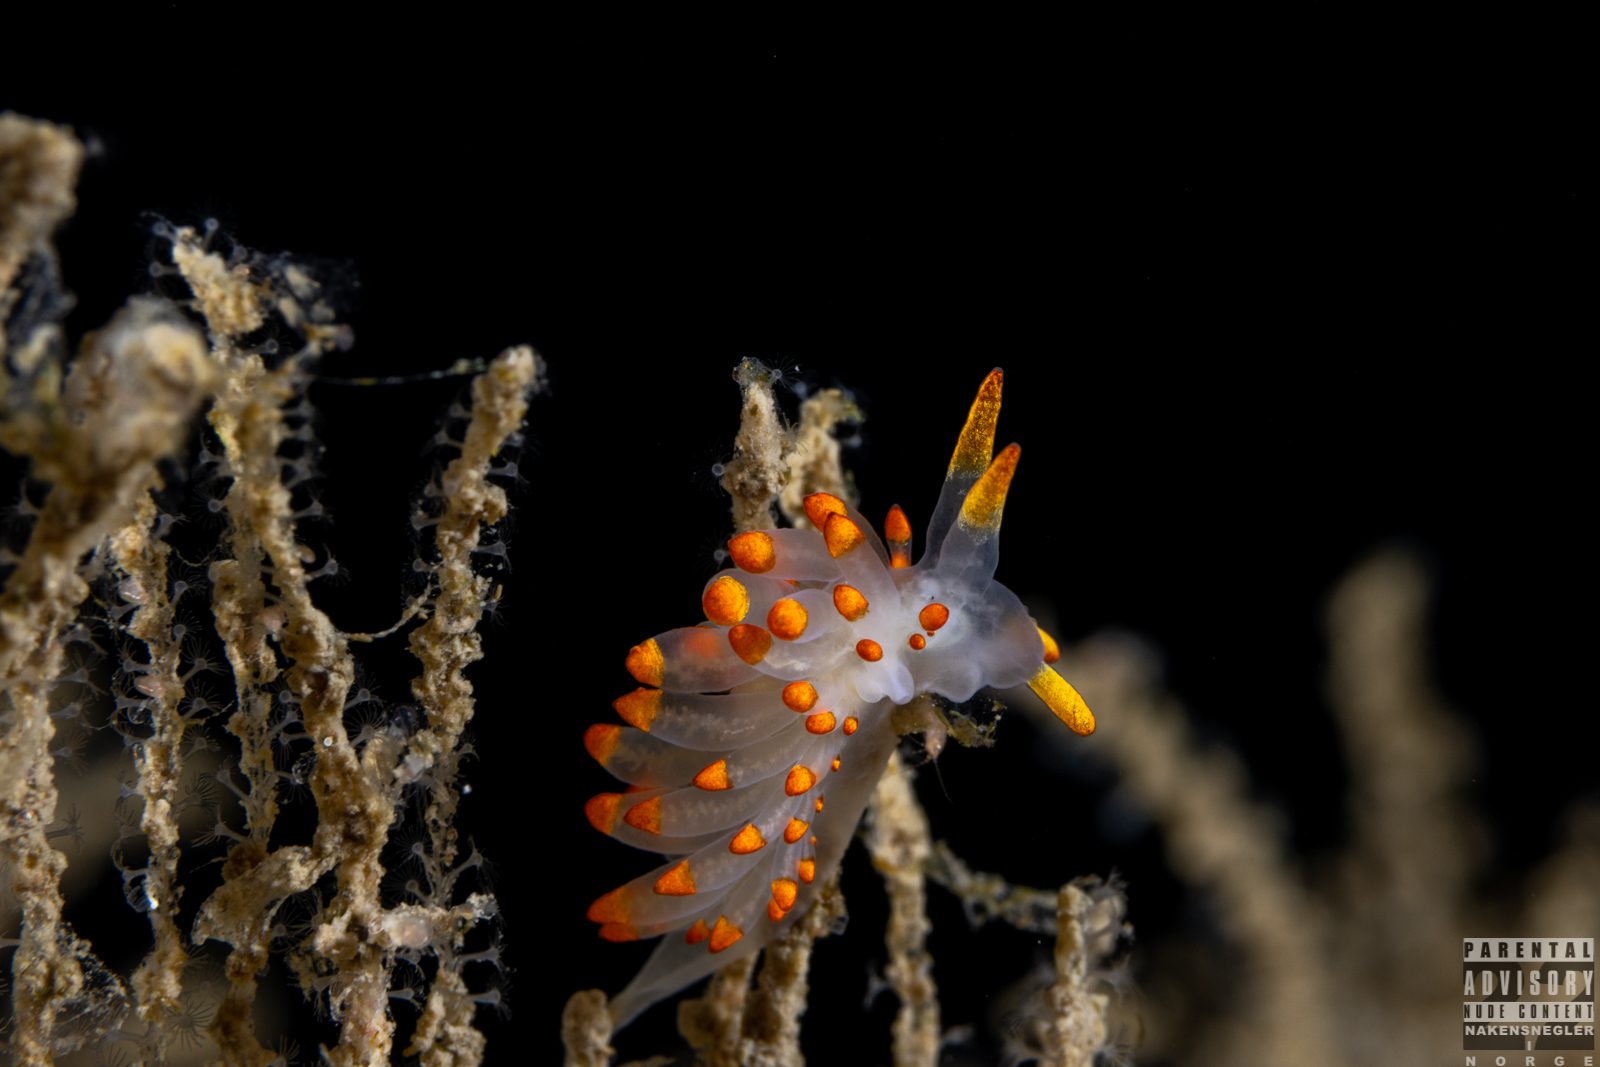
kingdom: Animalia
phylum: Mollusca
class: Gastropoda
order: Nudibranchia
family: Eubranchidae
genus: Amphorina
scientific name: Amphorina farrani
